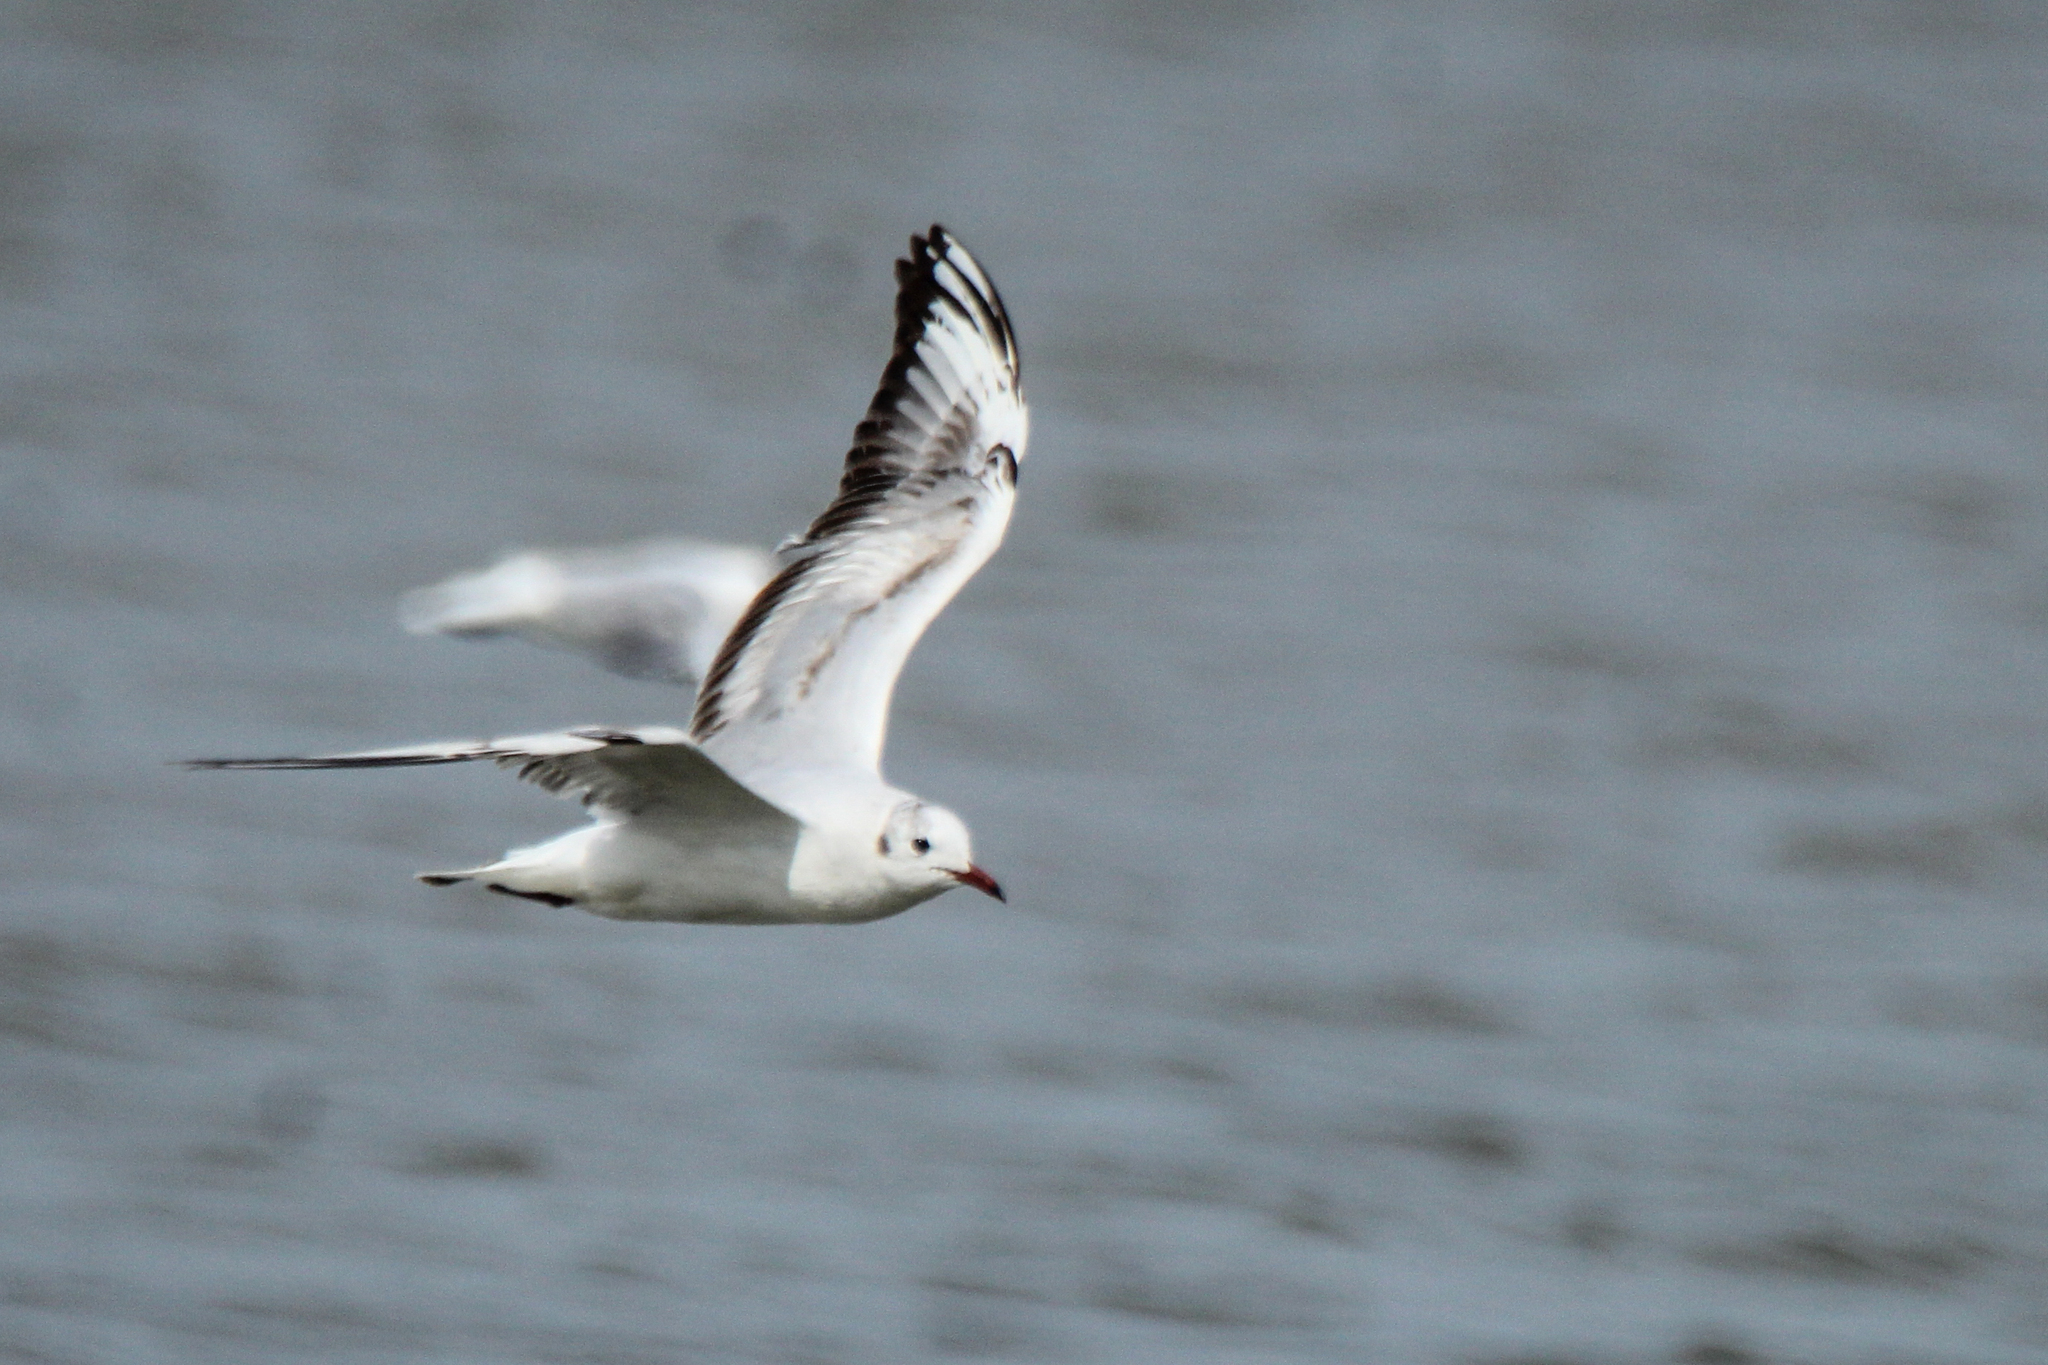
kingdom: Animalia
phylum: Chordata
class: Aves
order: Charadriiformes
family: Laridae
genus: Chroicocephalus
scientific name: Chroicocephalus ridibundus
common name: Black-headed gull
